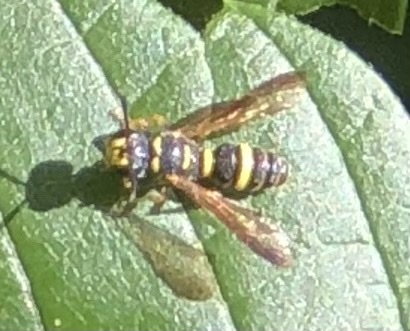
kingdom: Animalia
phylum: Arthropoda
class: Insecta
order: Hymenoptera
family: Crabronidae
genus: Cerceris
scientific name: Cerceris insolita
